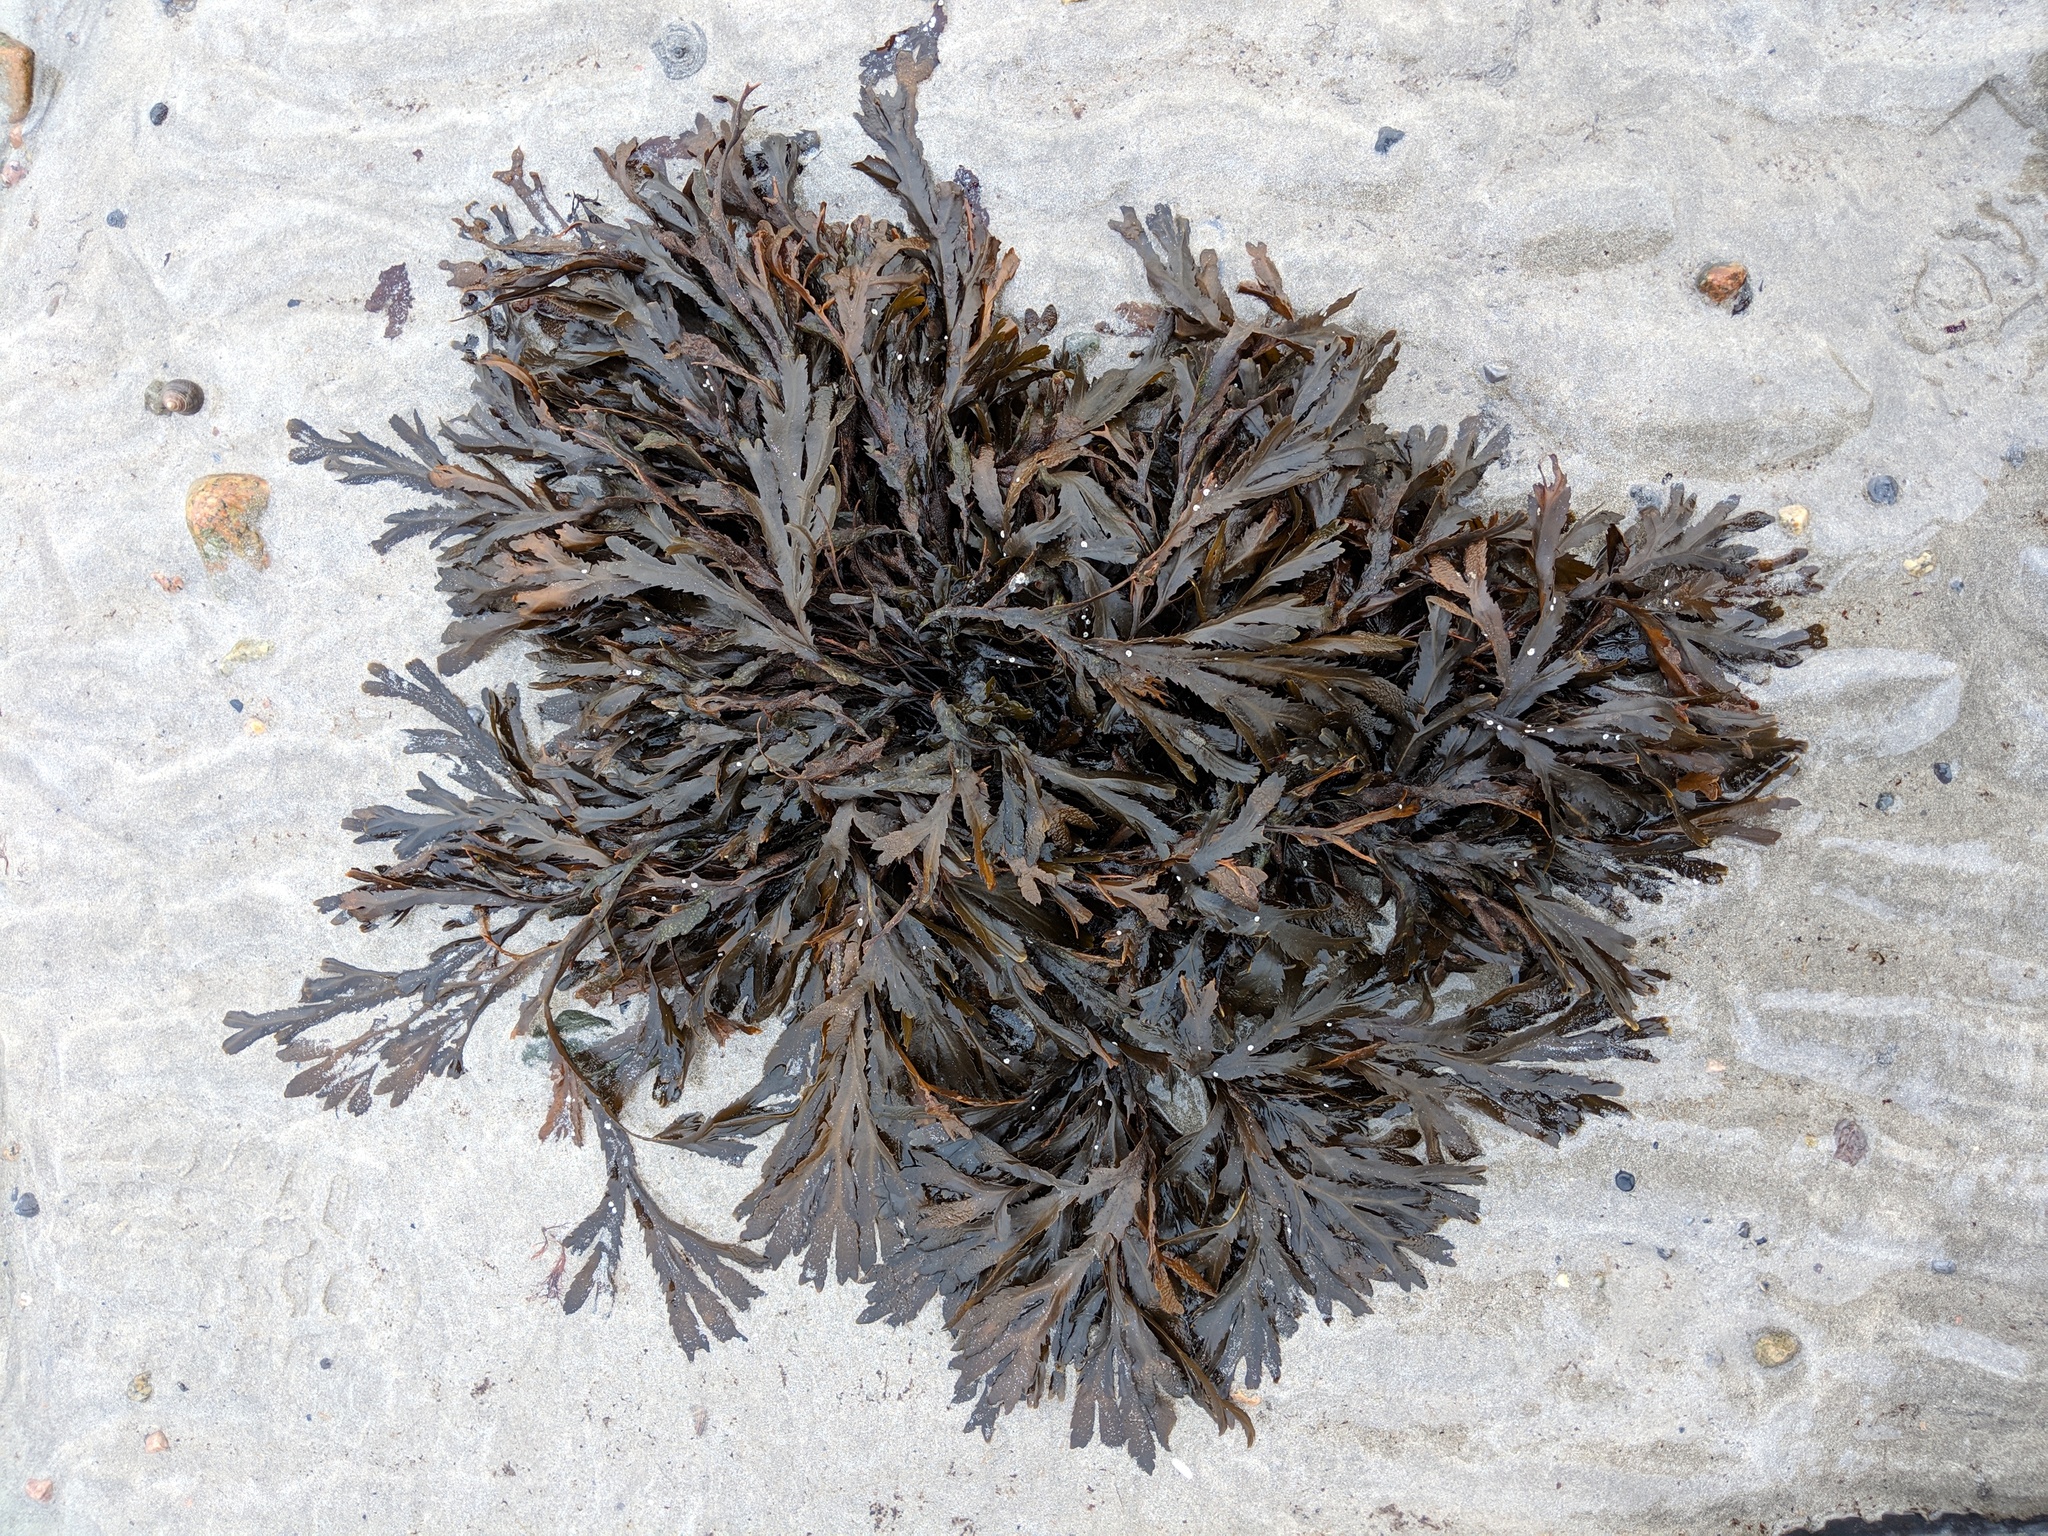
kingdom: Chromista
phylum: Ochrophyta
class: Phaeophyceae
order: Fucales
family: Fucaceae
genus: Fucus
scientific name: Fucus serratus
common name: Toothed wrack
